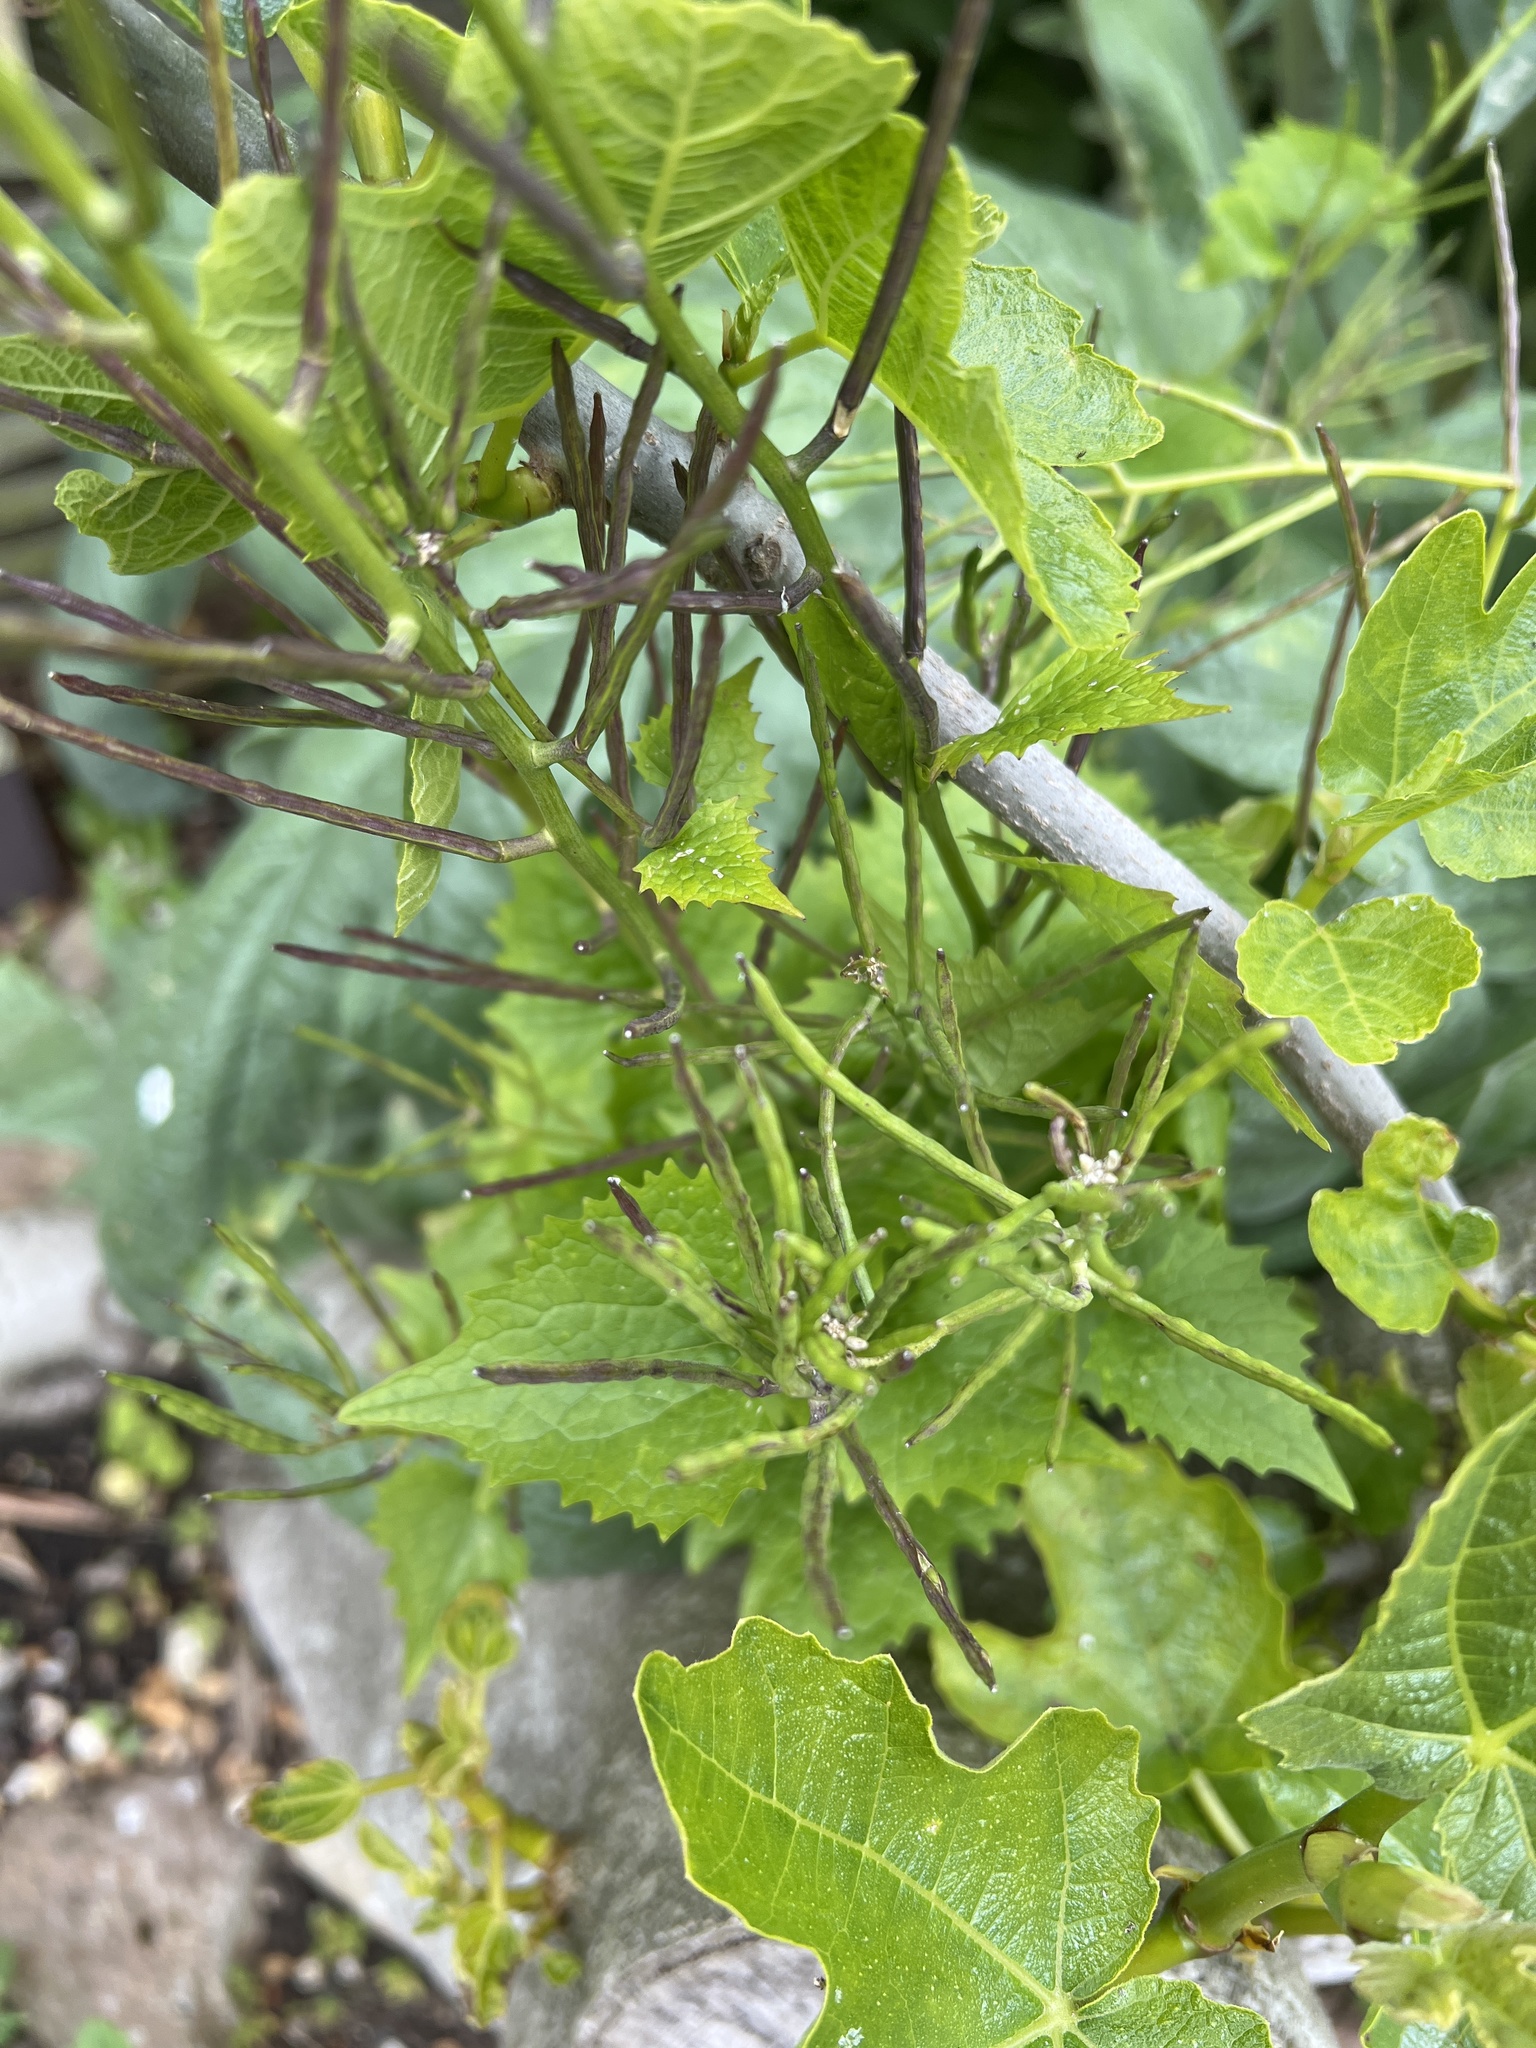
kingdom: Plantae
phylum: Tracheophyta
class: Magnoliopsida
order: Brassicales
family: Brassicaceae
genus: Alliaria
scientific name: Alliaria petiolata
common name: Garlic mustard
